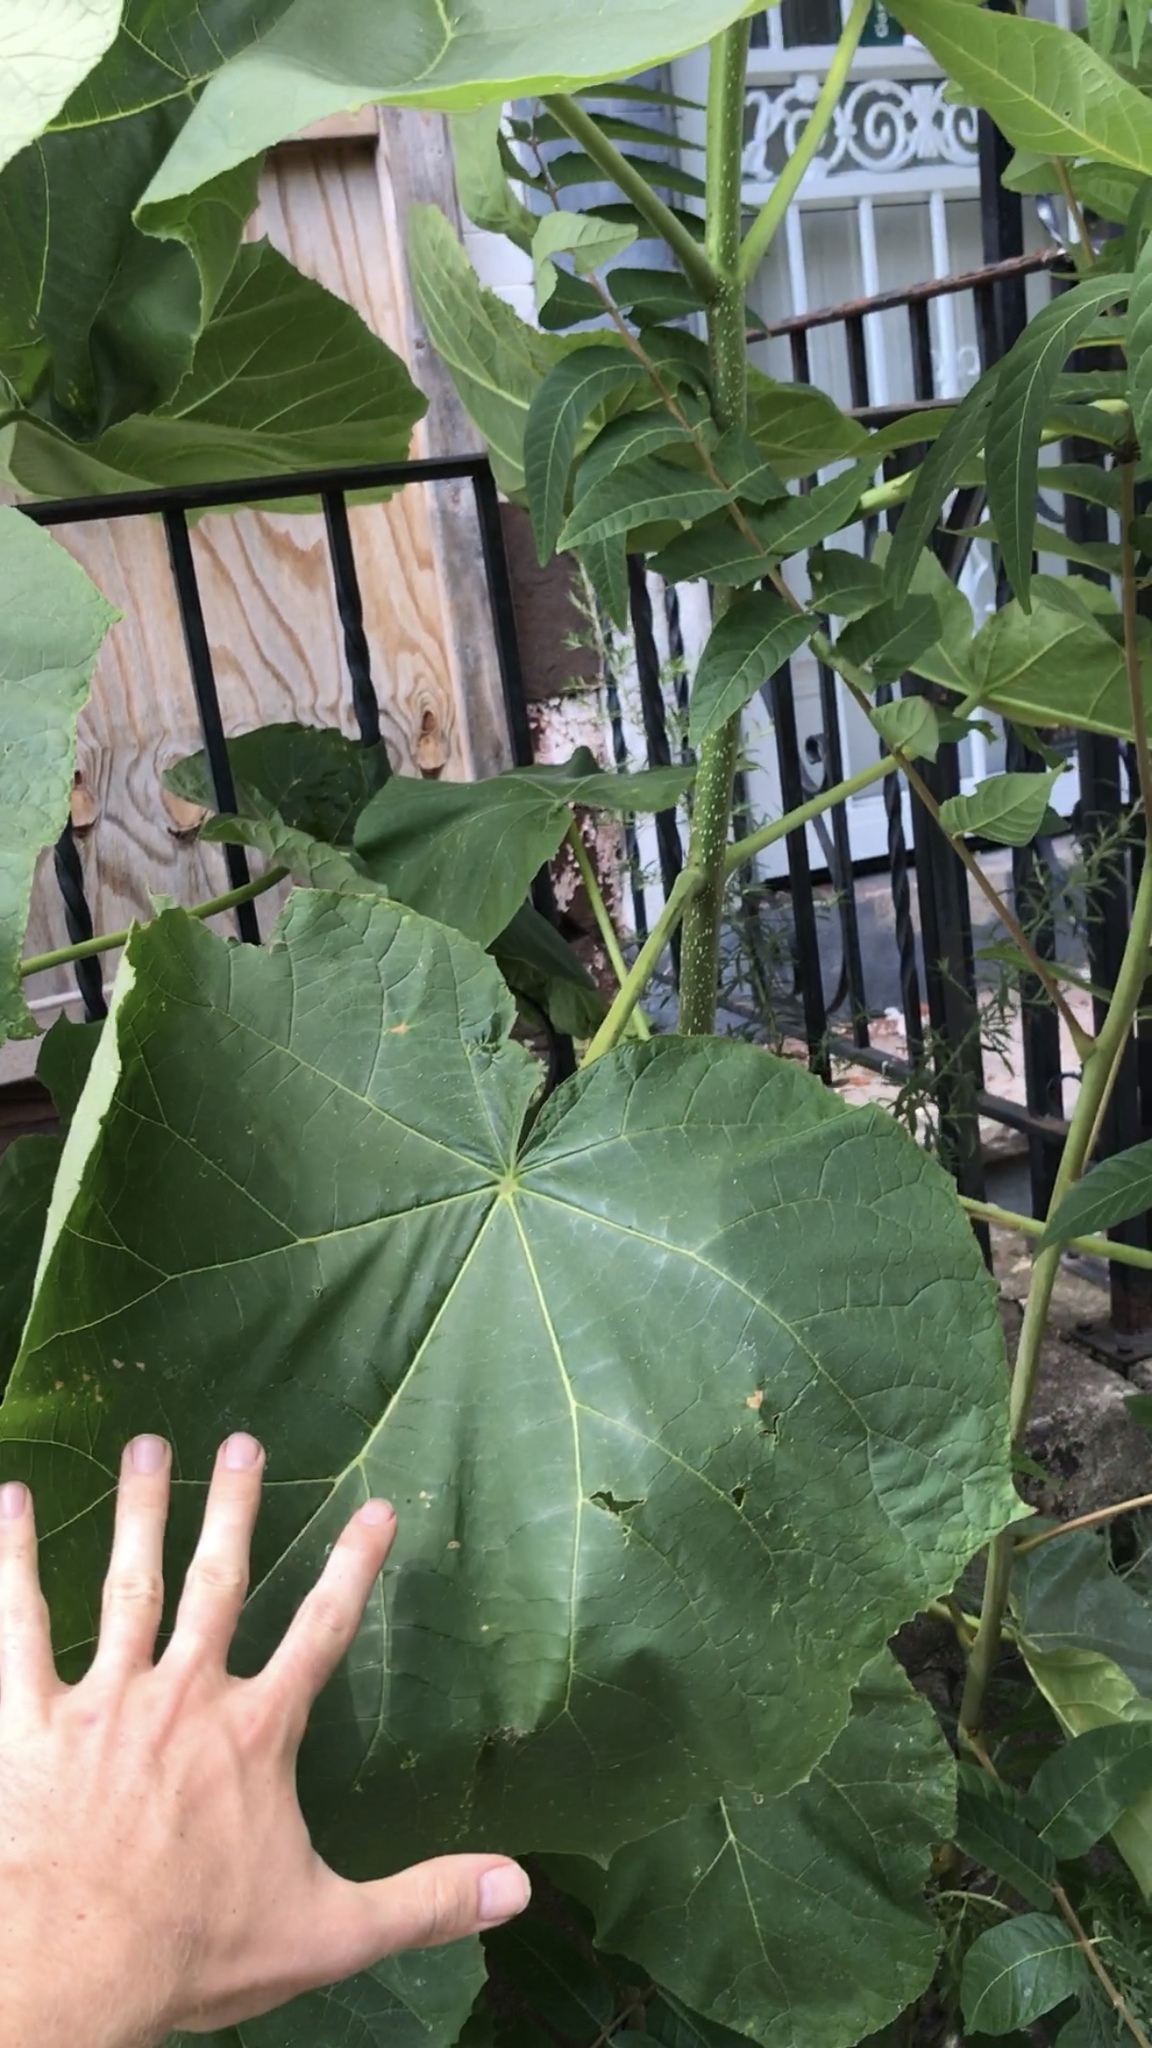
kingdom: Plantae
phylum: Tracheophyta
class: Magnoliopsida
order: Lamiales
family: Paulowniaceae
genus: Paulownia
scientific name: Paulownia tomentosa
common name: Foxglove-tree
